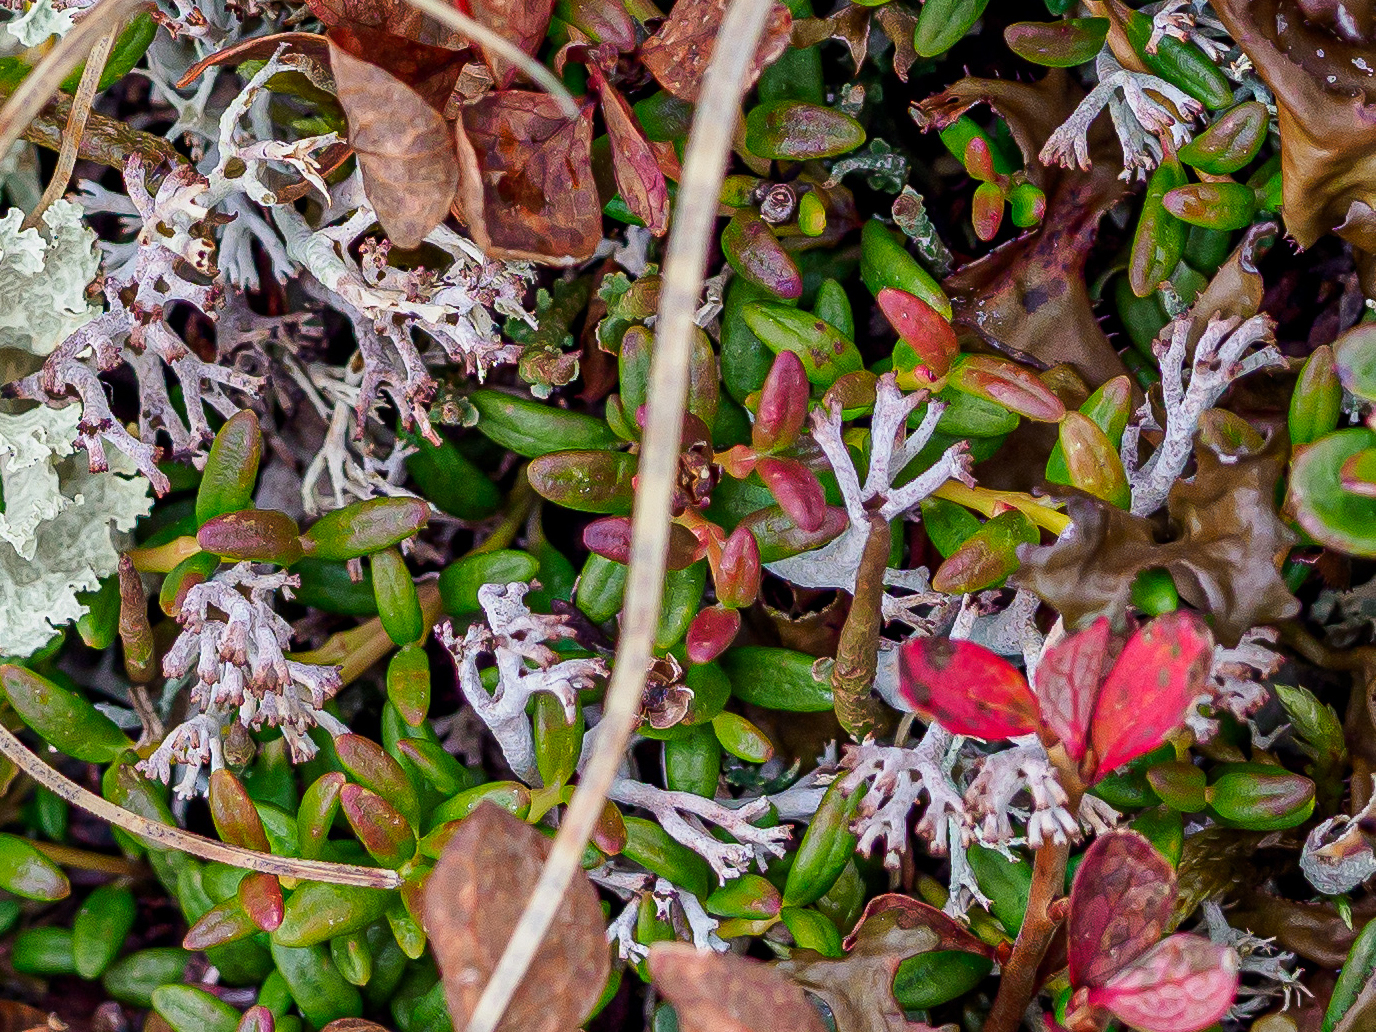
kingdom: Fungi
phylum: Ascomycota
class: Lecanoromycetes
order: Lecanorales
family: Cladoniaceae
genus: Cladonia
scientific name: Cladonia rangiferina
